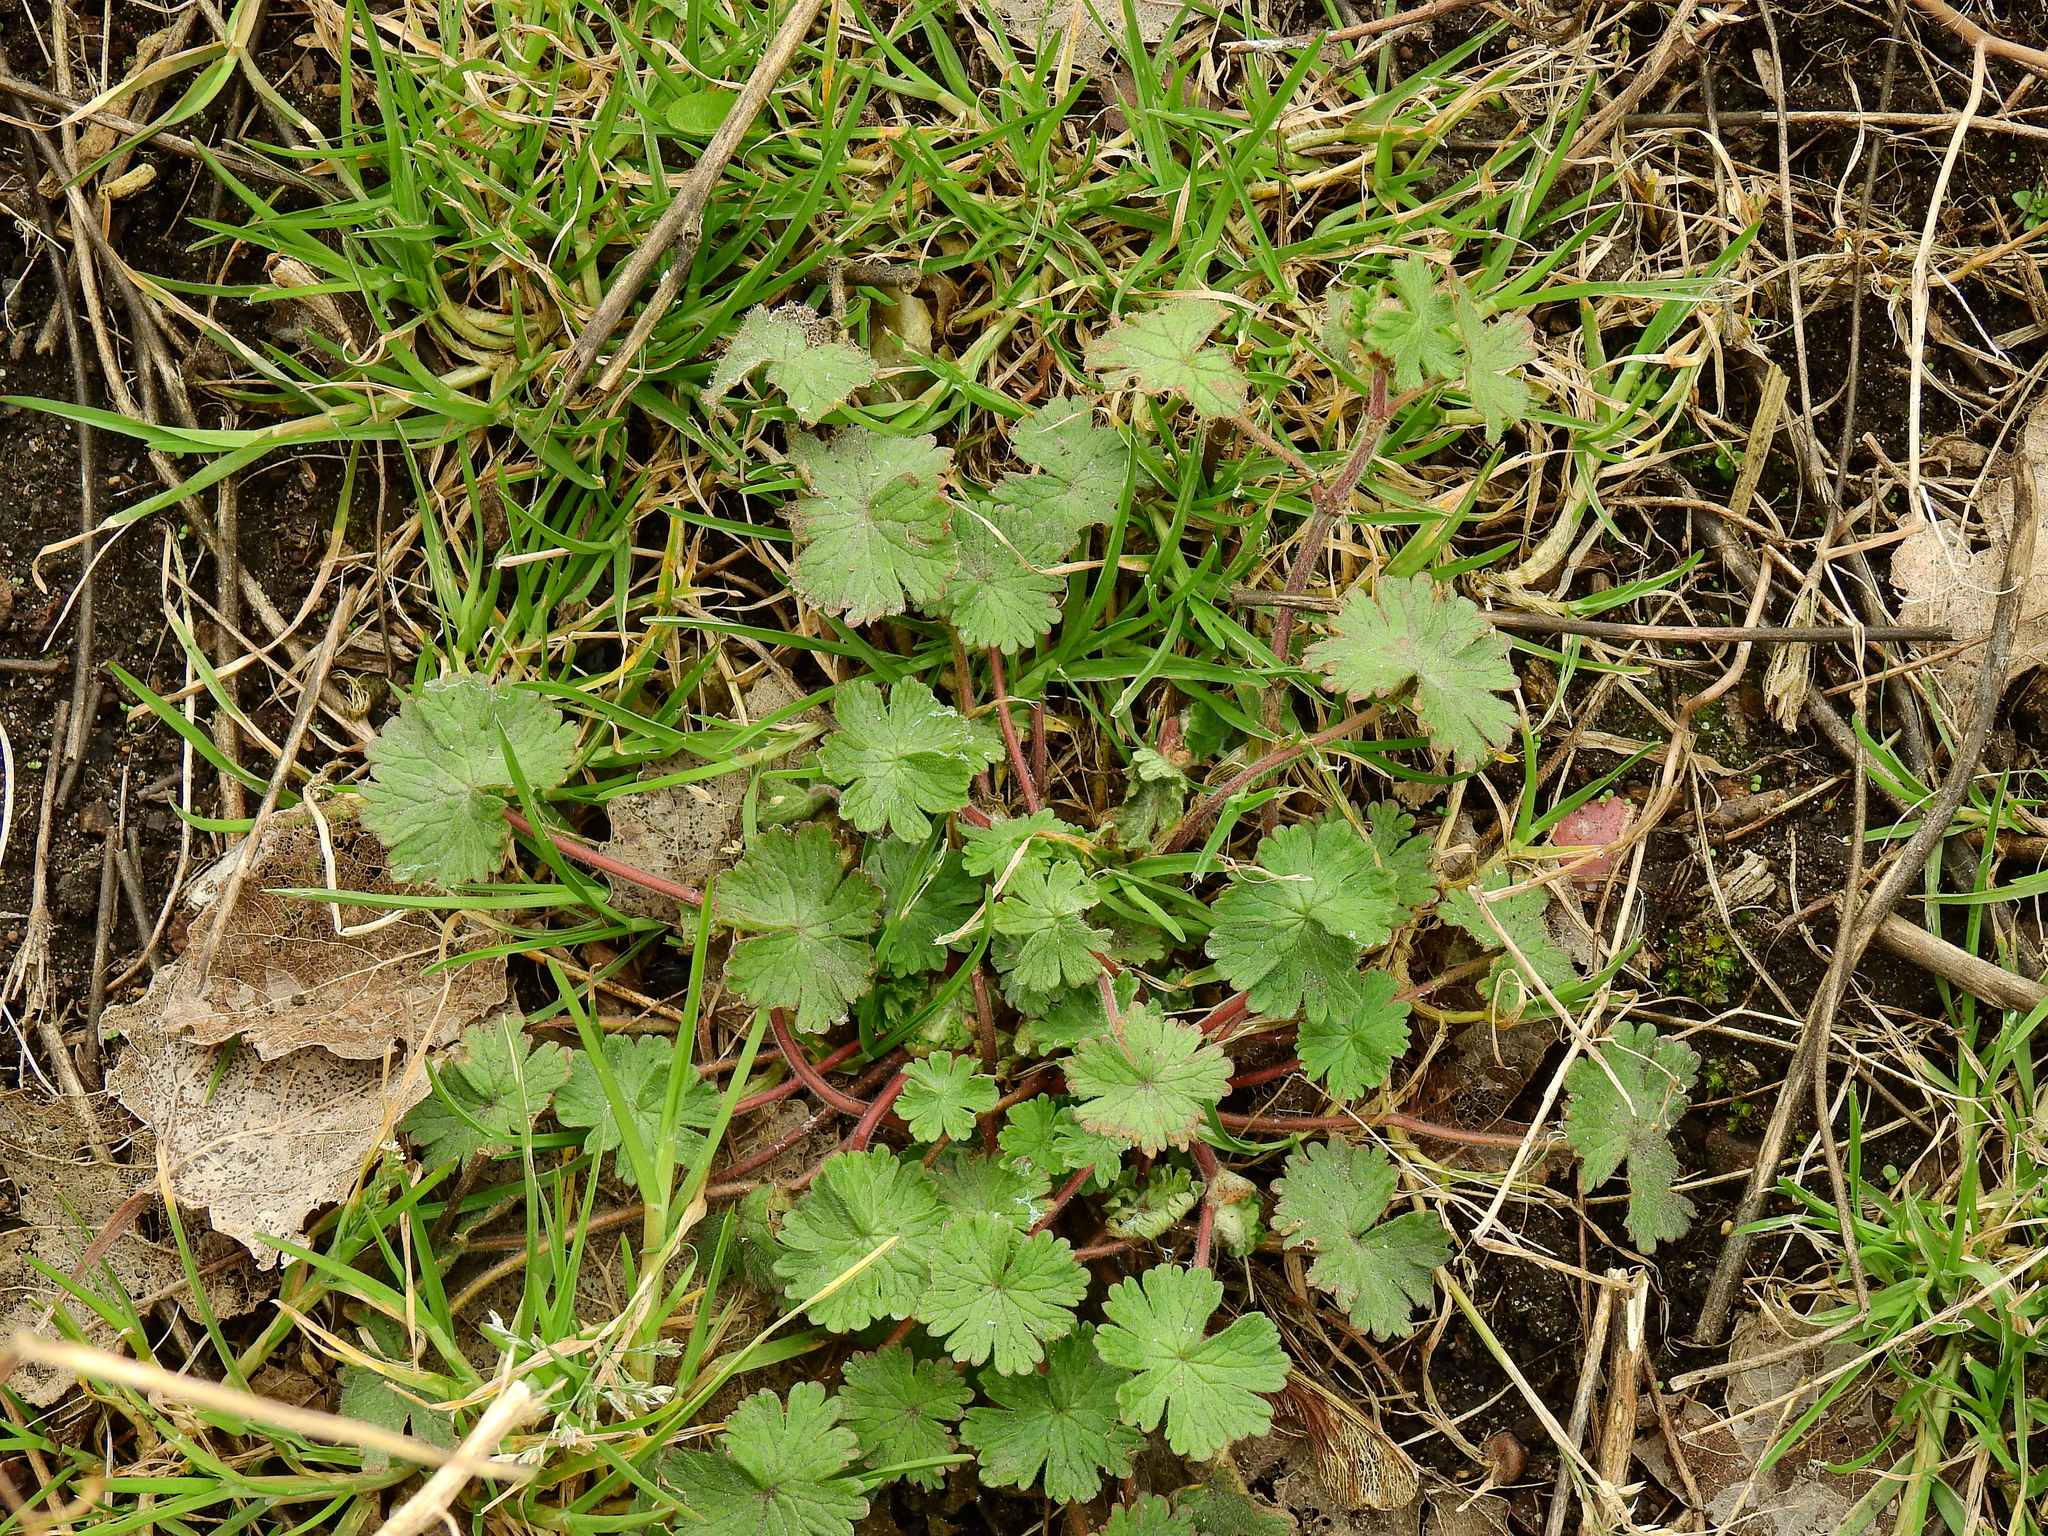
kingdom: Plantae
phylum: Tracheophyta
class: Magnoliopsida
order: Geraniales
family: Geraniaceae
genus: Geranium
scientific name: Geranium molle
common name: Dove's-foot crane's-bill
